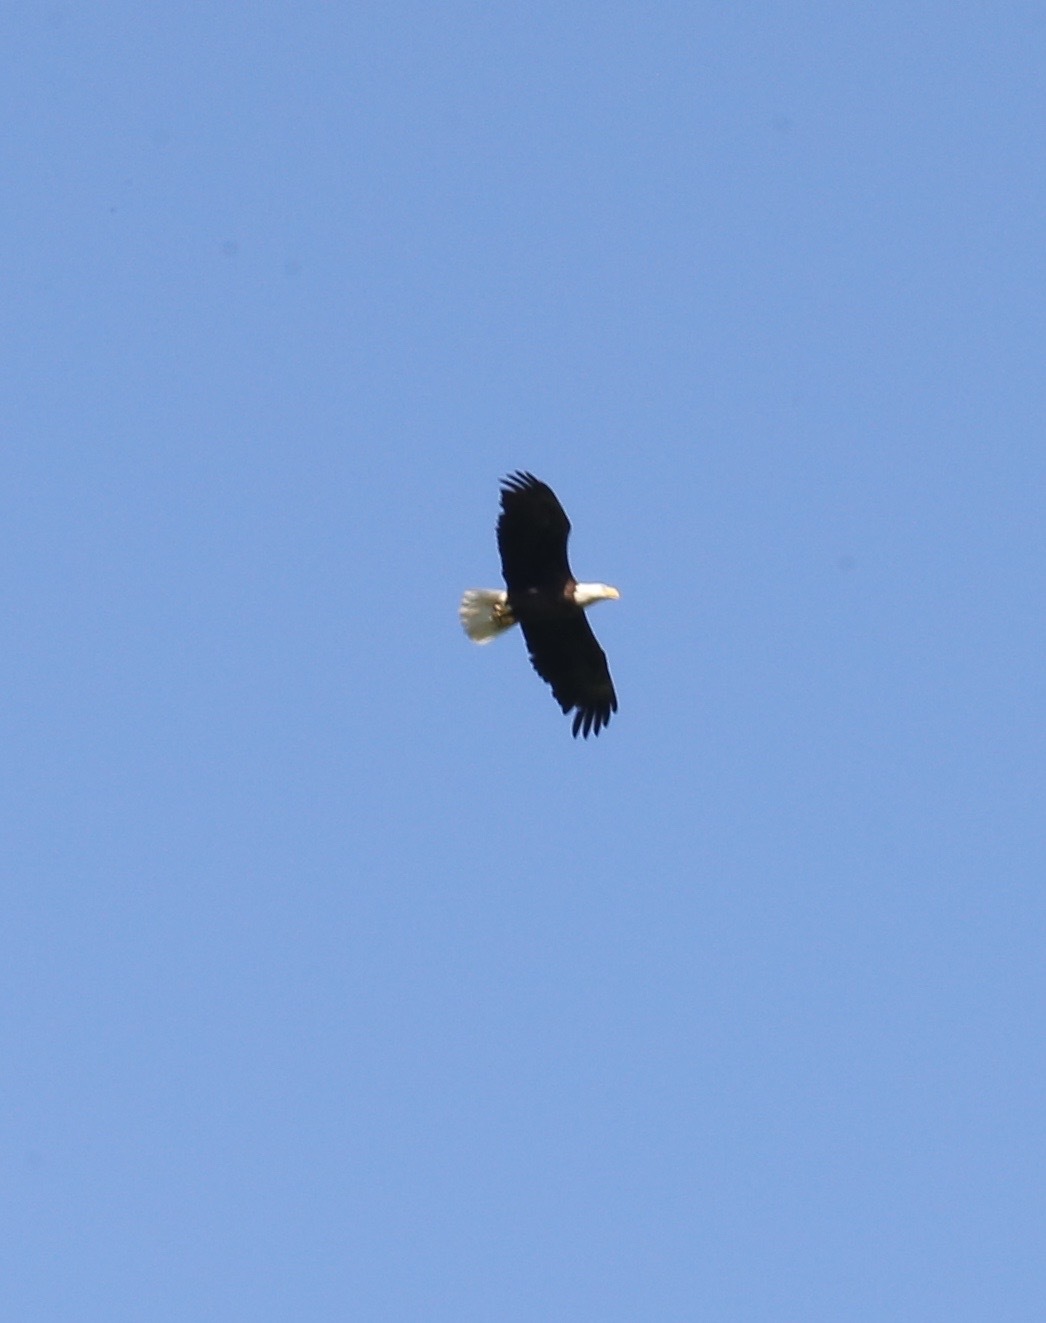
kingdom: Animalia
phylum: Chordata
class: Aves
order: Accipitriformes
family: Accipitridae
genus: Haliaeetus
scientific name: Haliaeetus leucocephalus
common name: Bald eagle
